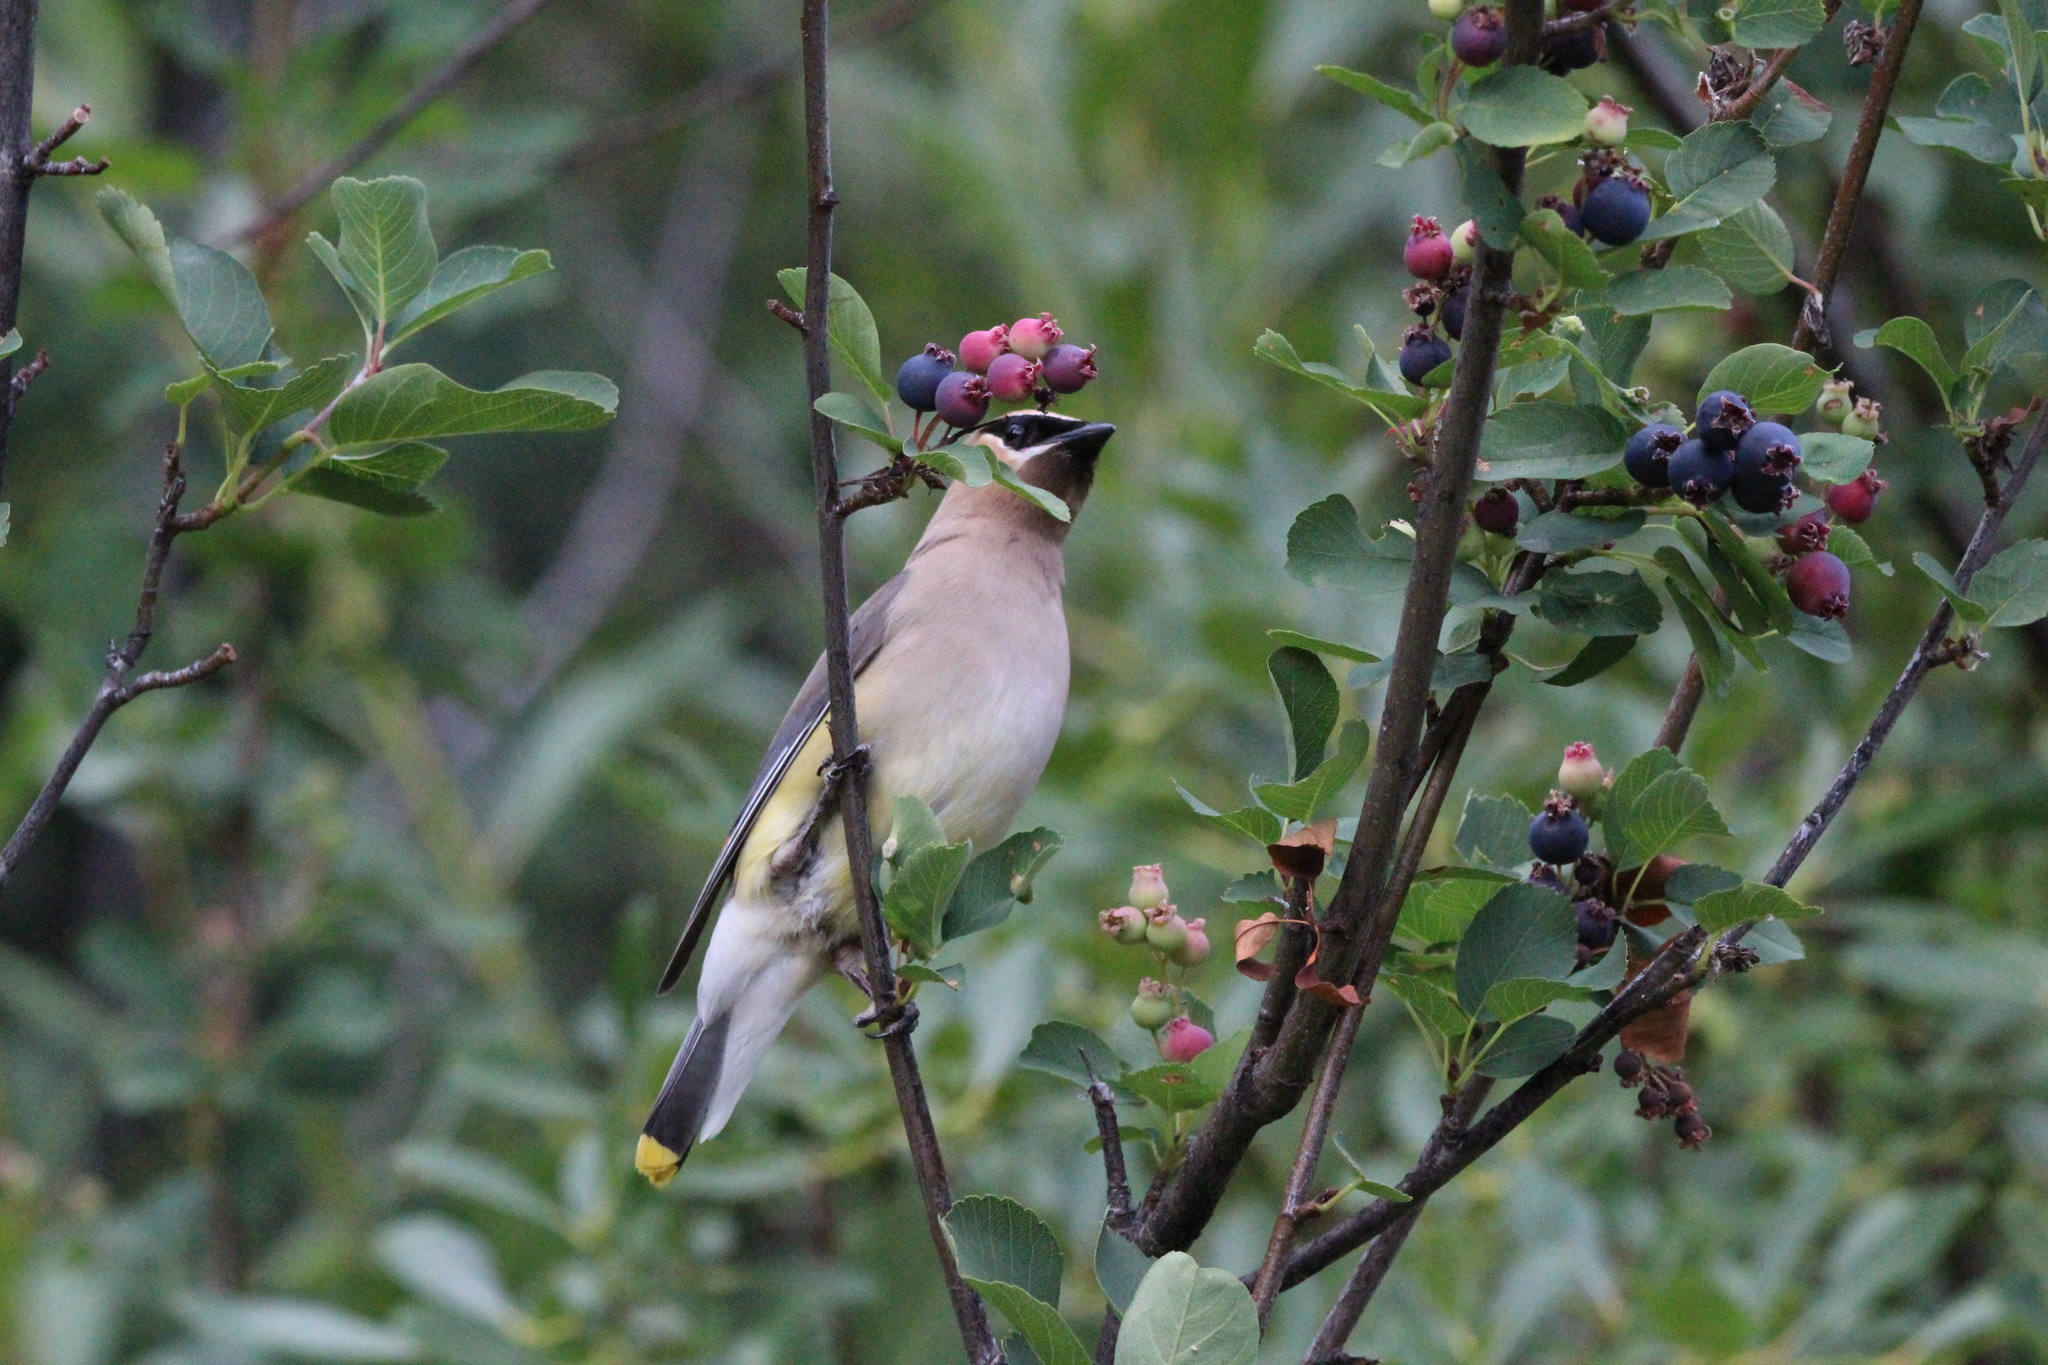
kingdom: Animalia
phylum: Chordata
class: Aves
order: Passeriformes
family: Bombycillidae
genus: Bombycilla
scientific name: Bombycilla cedrorum
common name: Cedar waxwing
